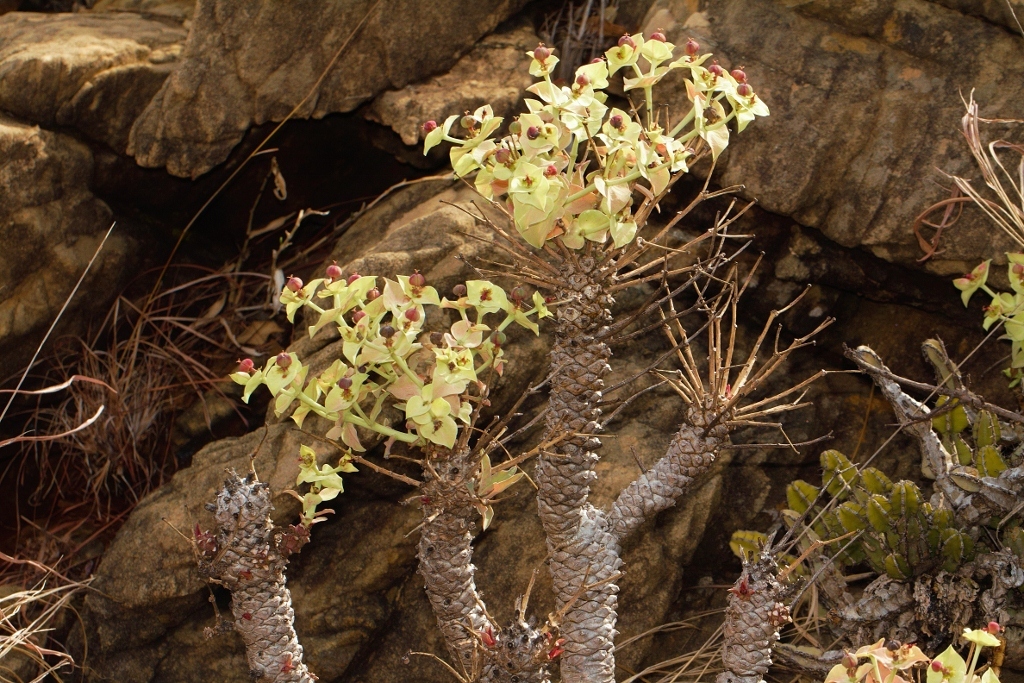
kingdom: Plantae
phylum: Tracheophyta
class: Magnoliopsida
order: Malpighiales
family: Euphorbiaceae
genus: Euphorbia
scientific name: Euphorbia wildii
